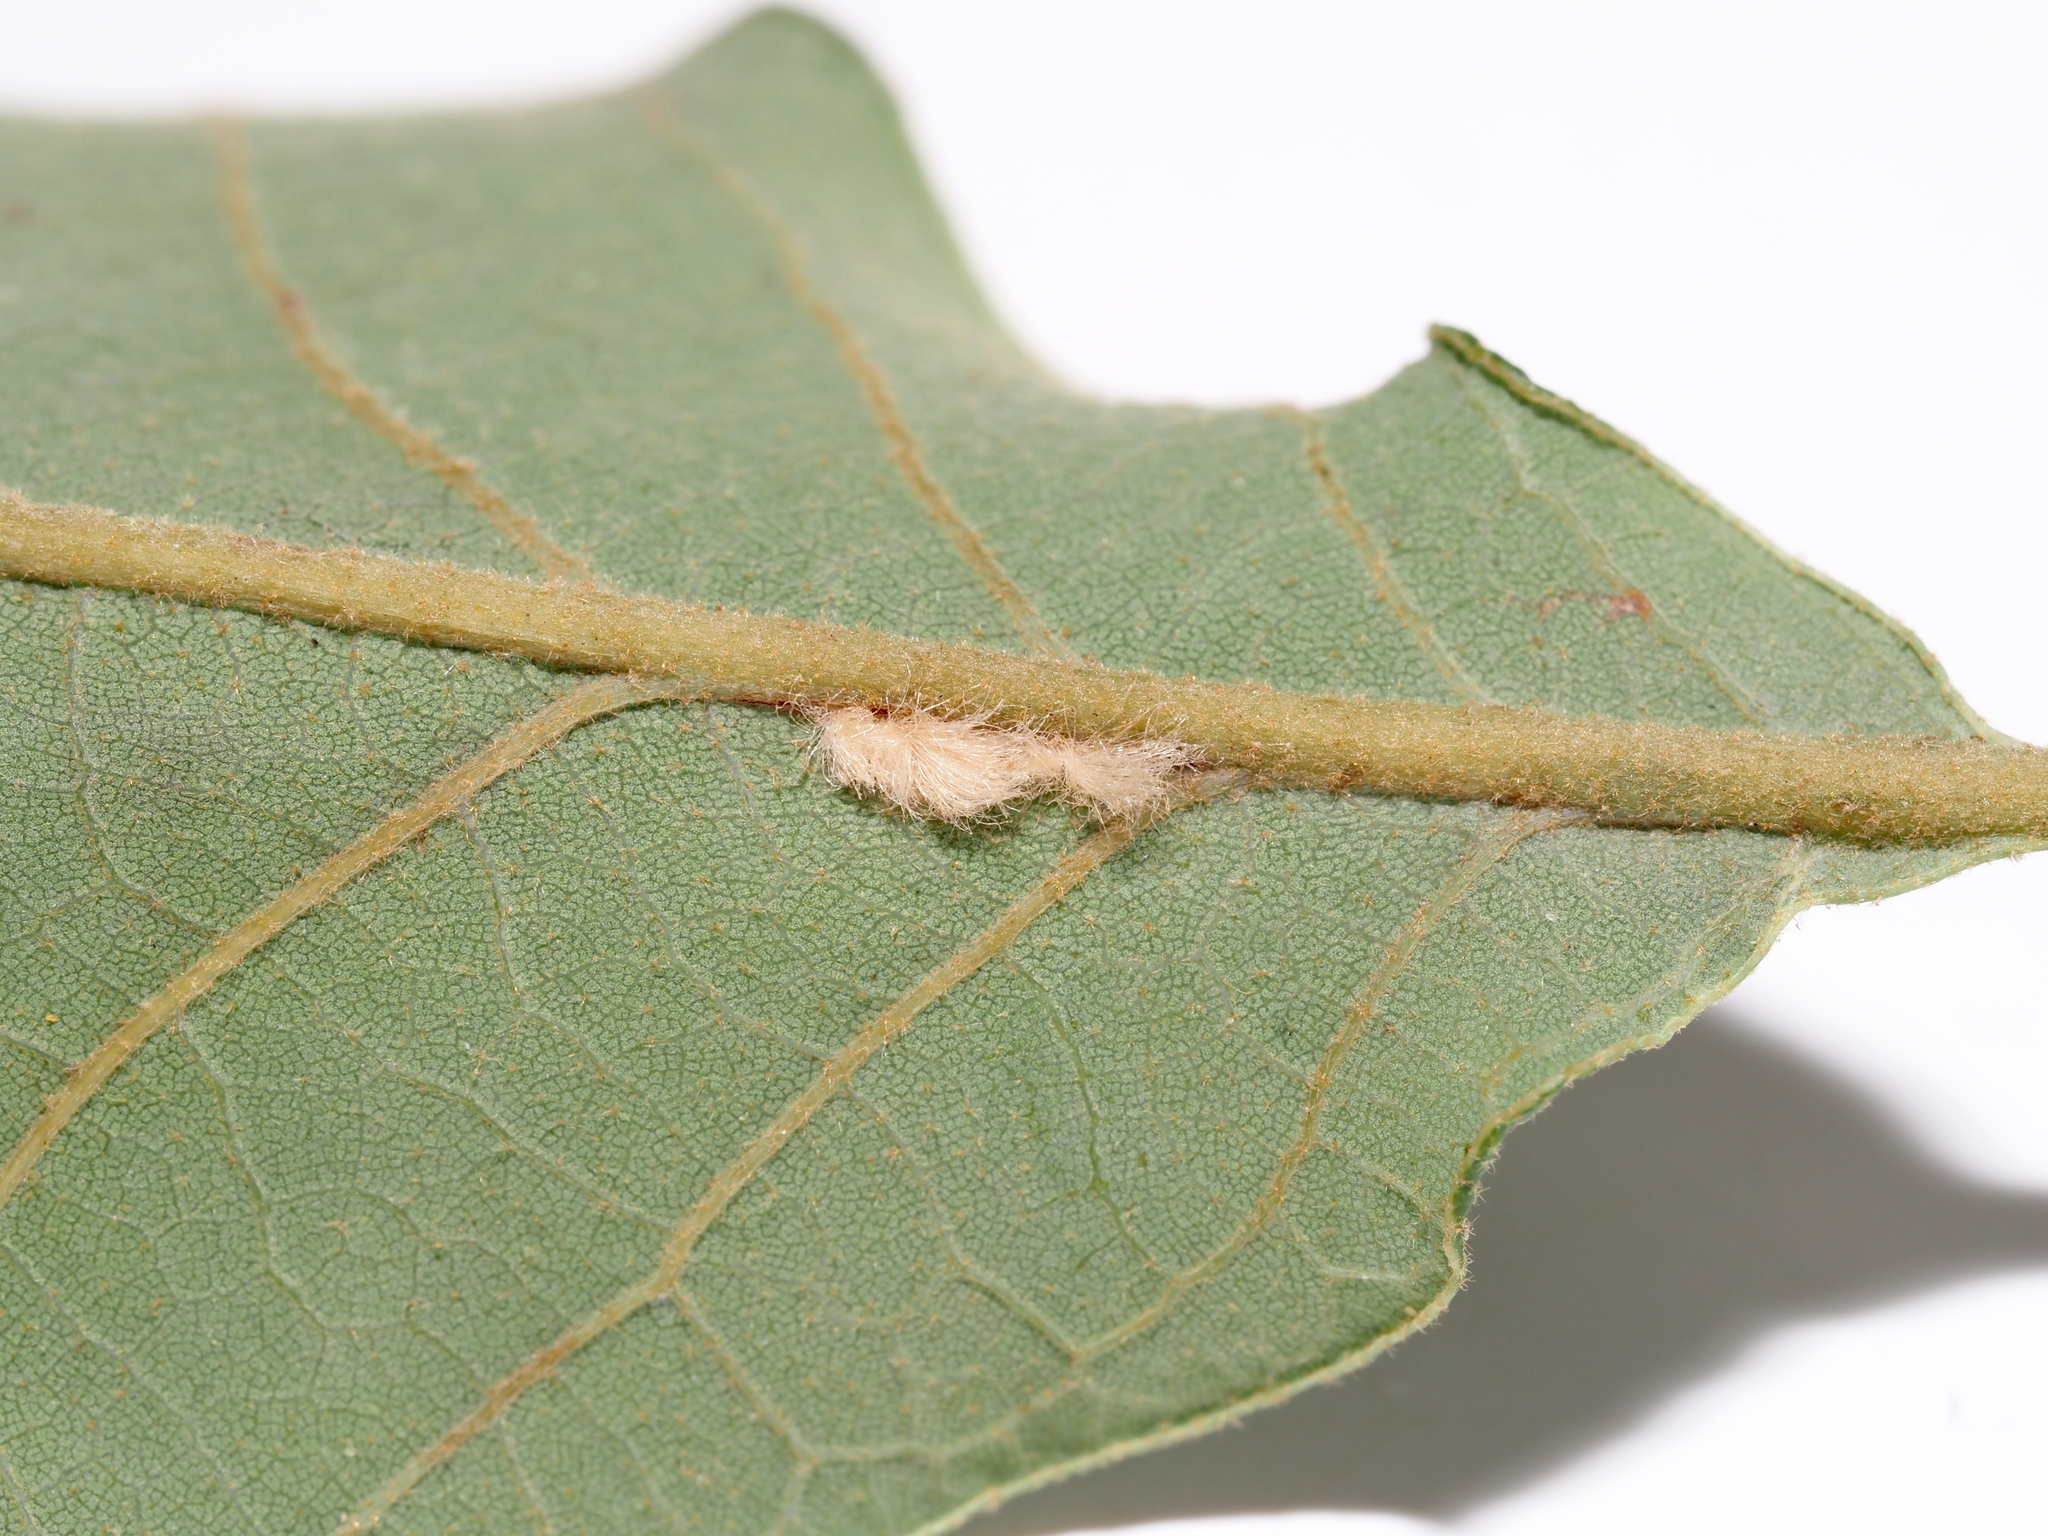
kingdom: Animalia
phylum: Arthropoda
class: Insecta
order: Hymenoptera
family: Cynipidae
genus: Andricus
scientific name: Andricus Druon pattoni
